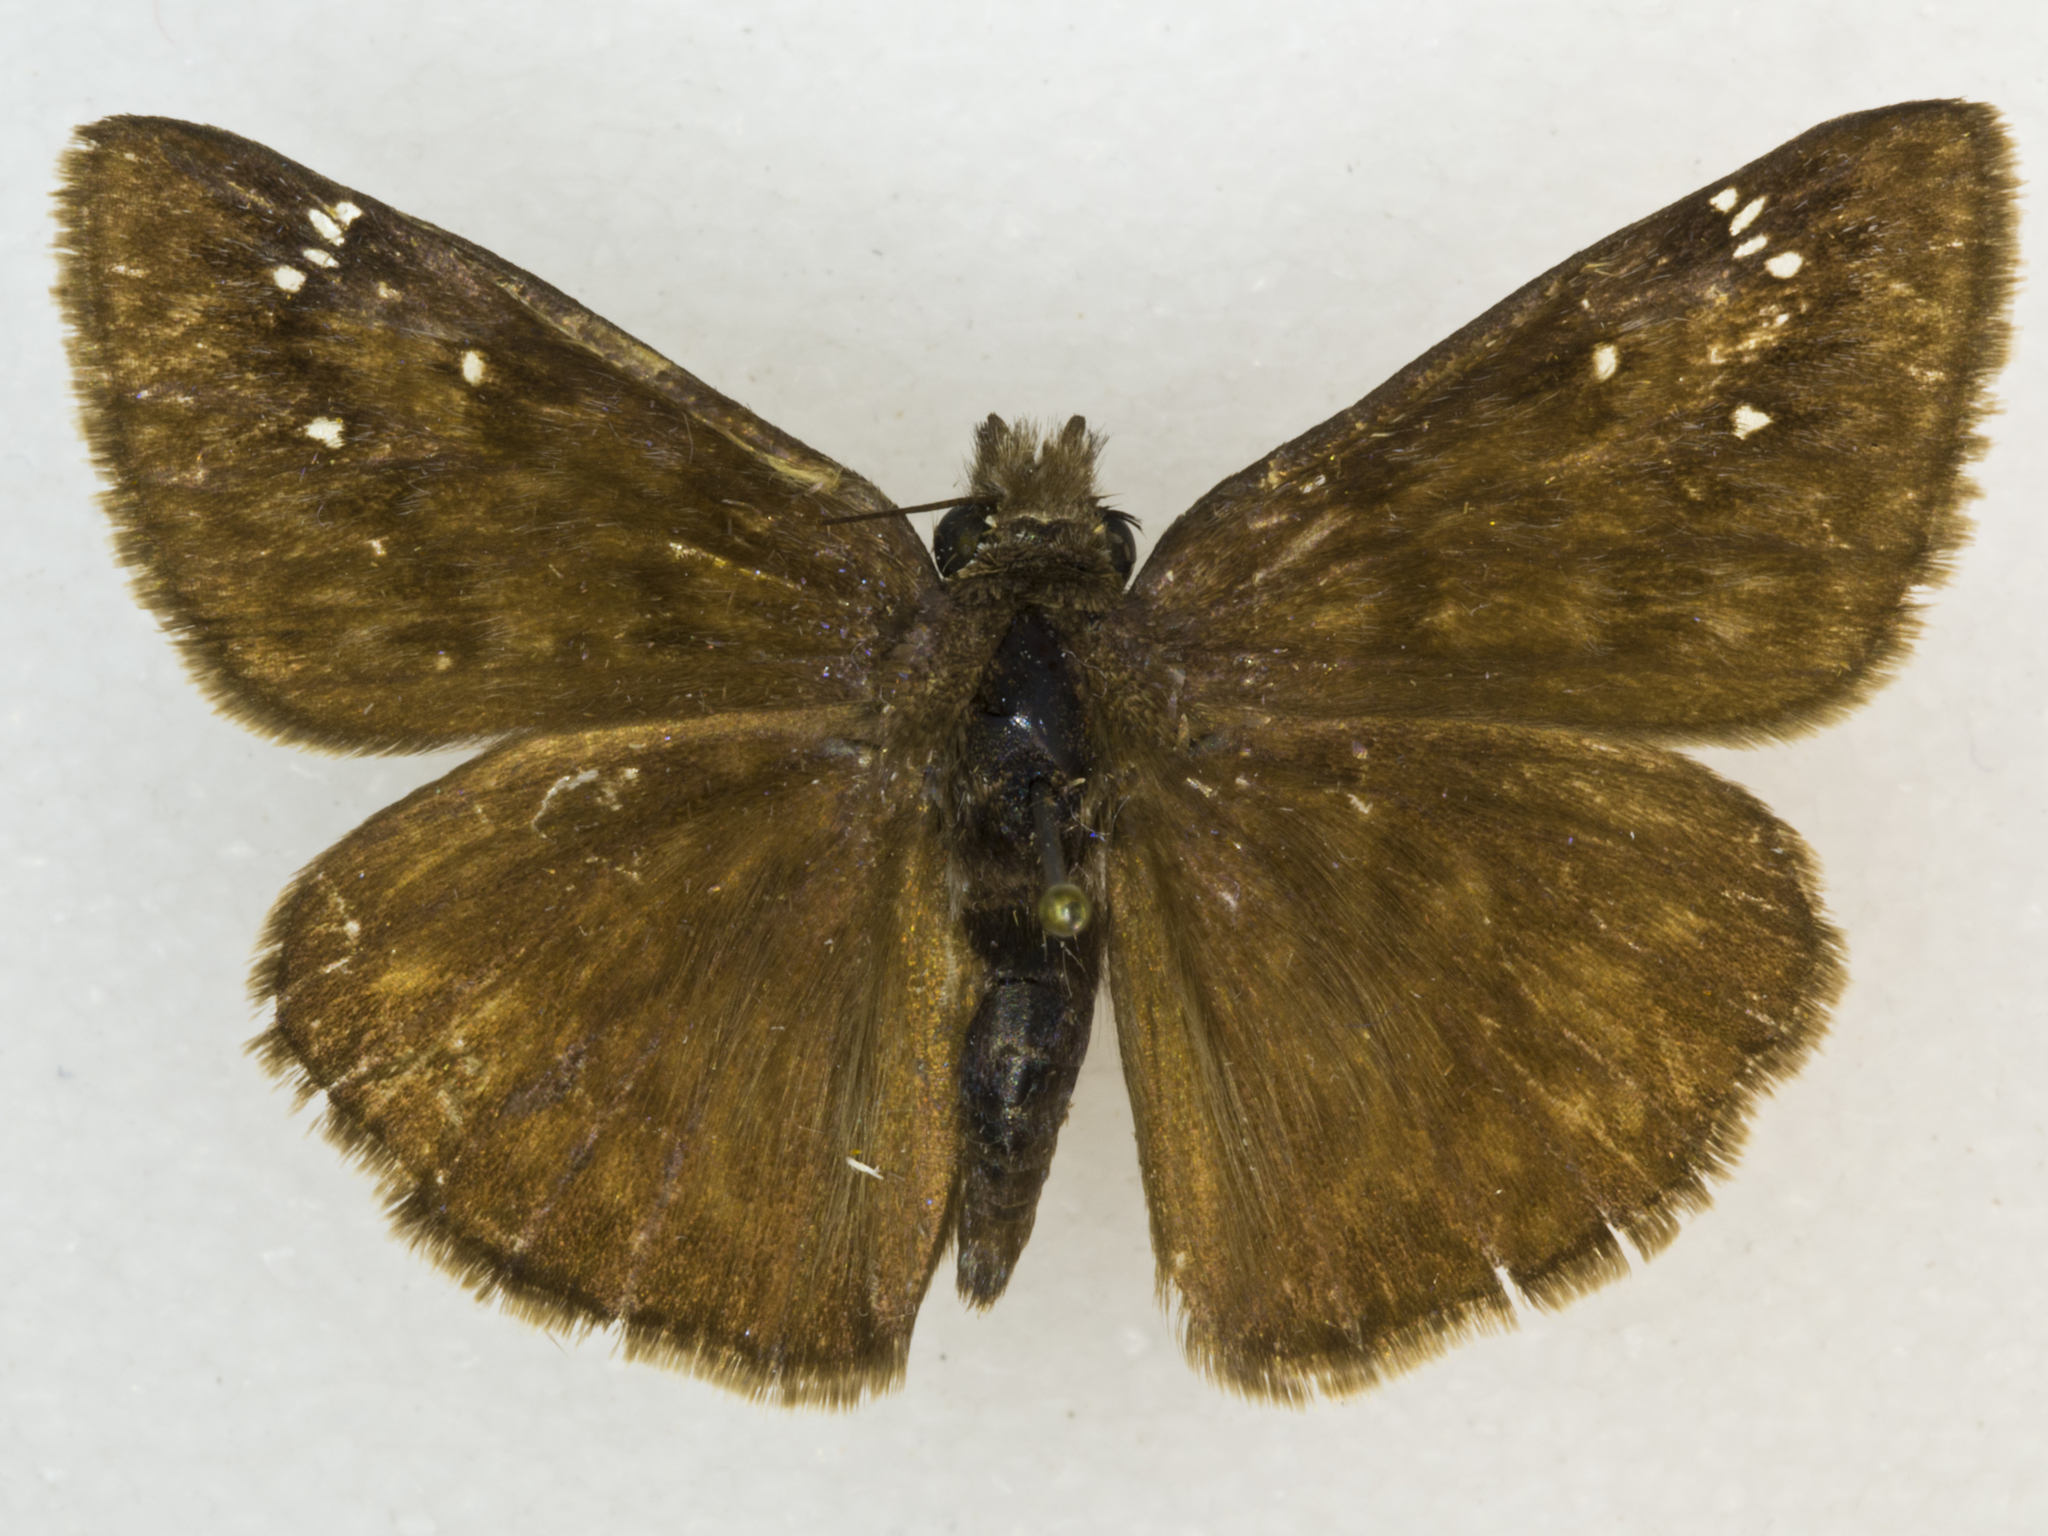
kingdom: Animalia
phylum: Arthropoda
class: Insecta
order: Lepidoptera
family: Hesperiidae
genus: Erynnis
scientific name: Erynnis meridianus
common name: Meridian duskywing
